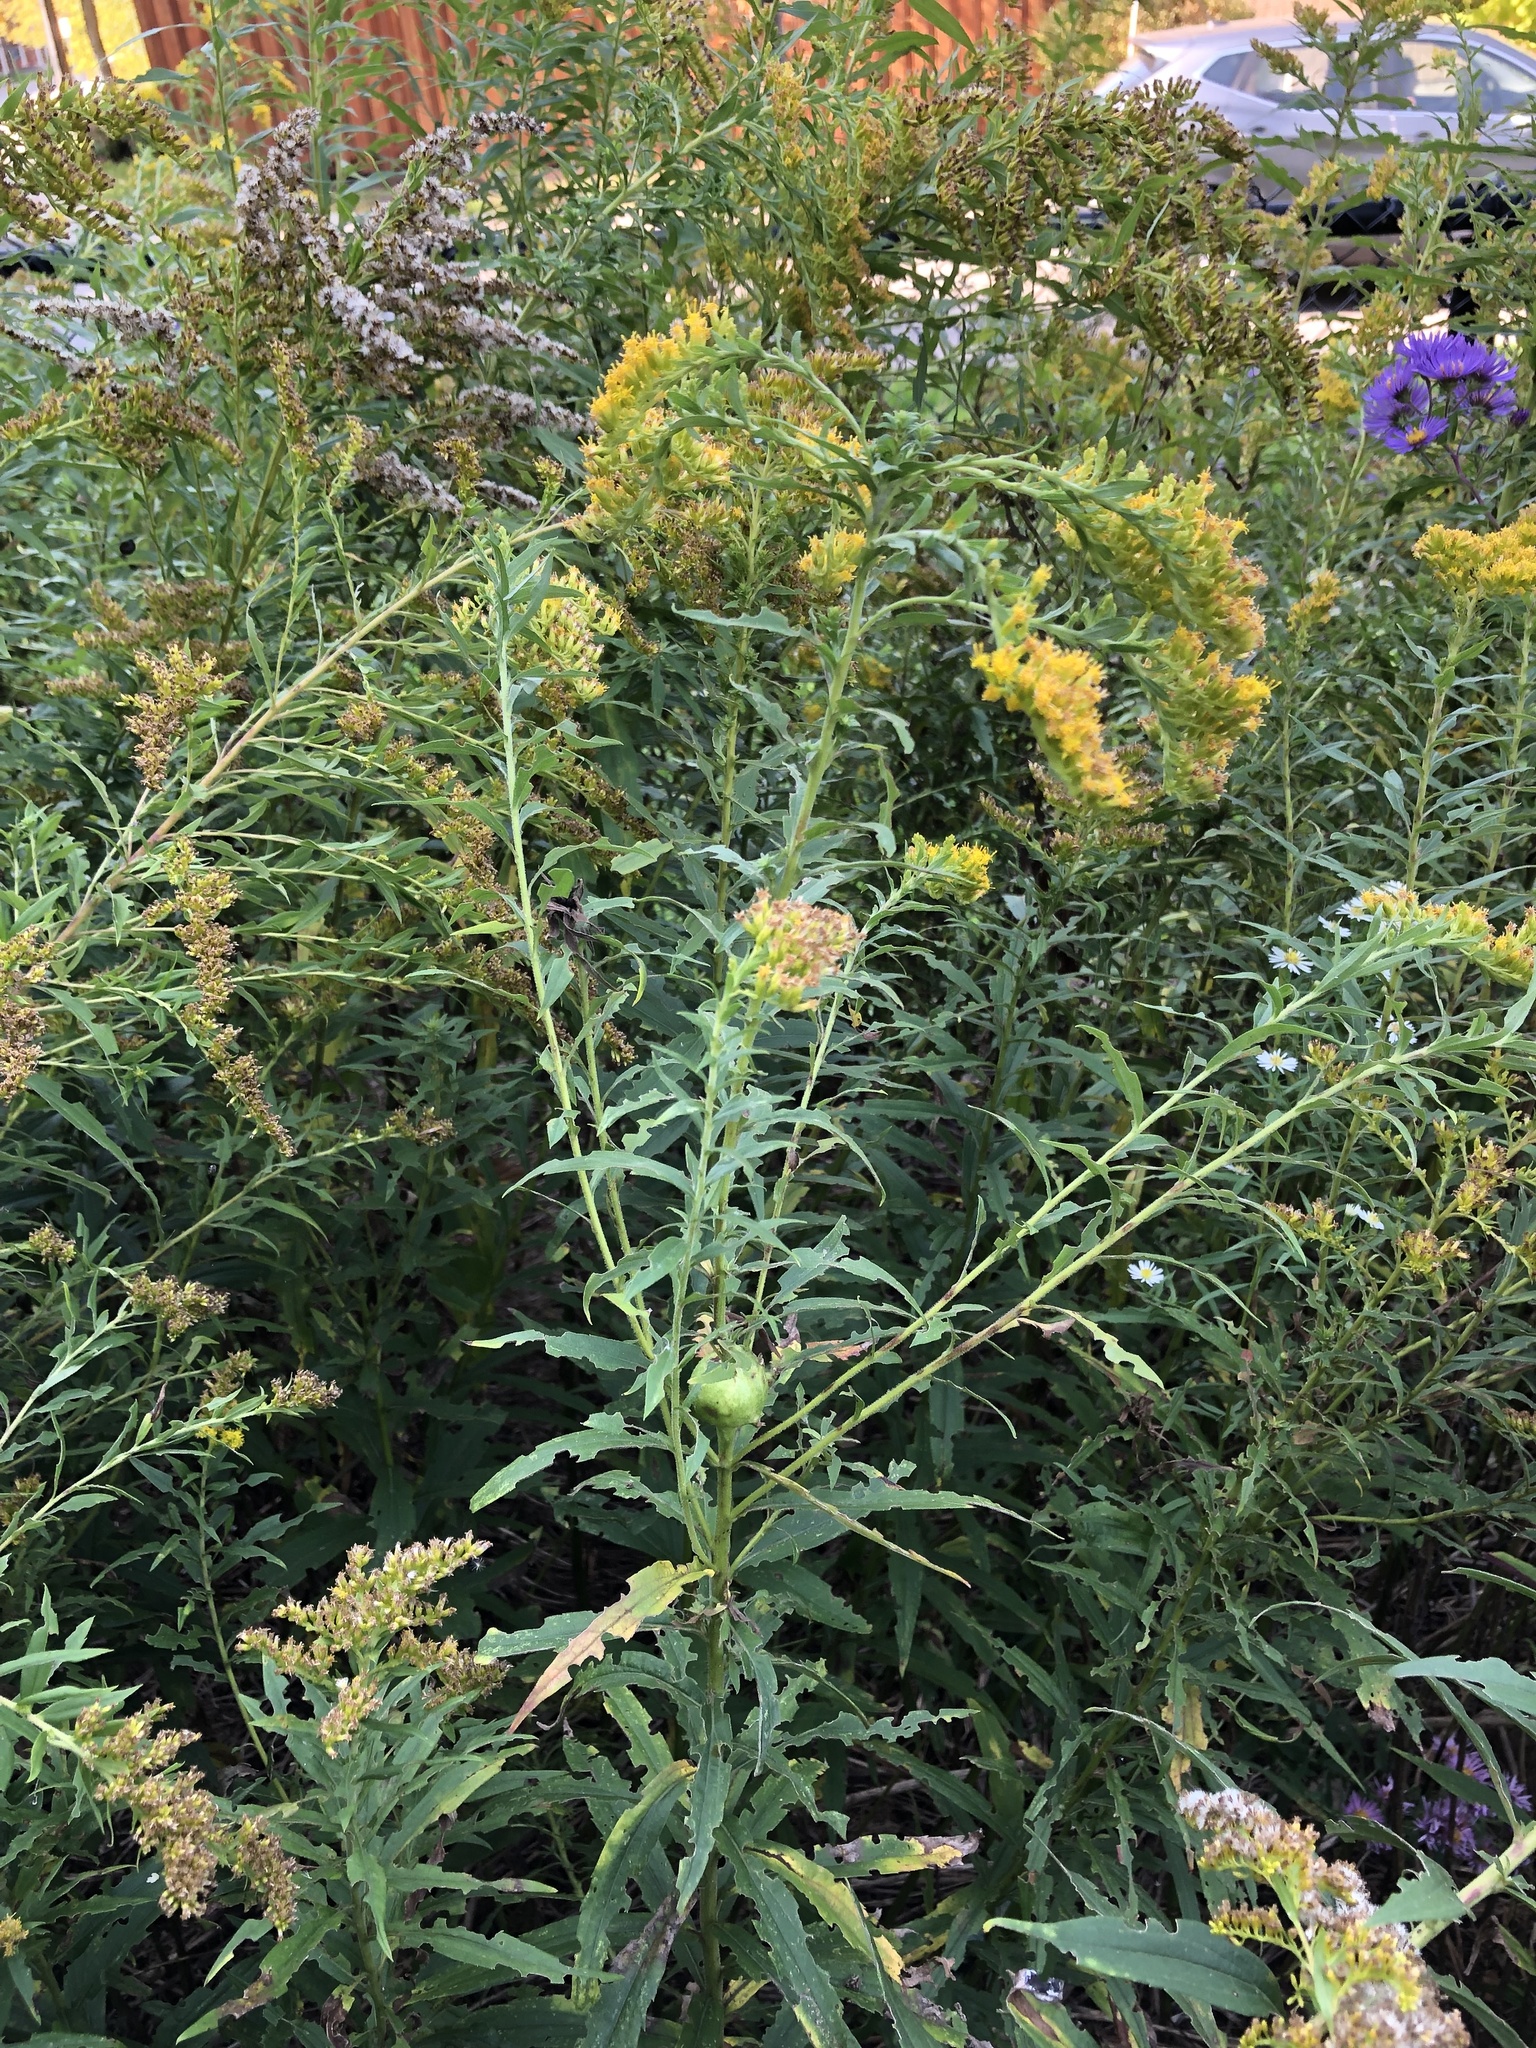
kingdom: Plantae
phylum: Tracheophyta
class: Magnoliopsida
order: Asterales
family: Asteraceae
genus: Solidago
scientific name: Solidago altissima
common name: Late goldenrod
